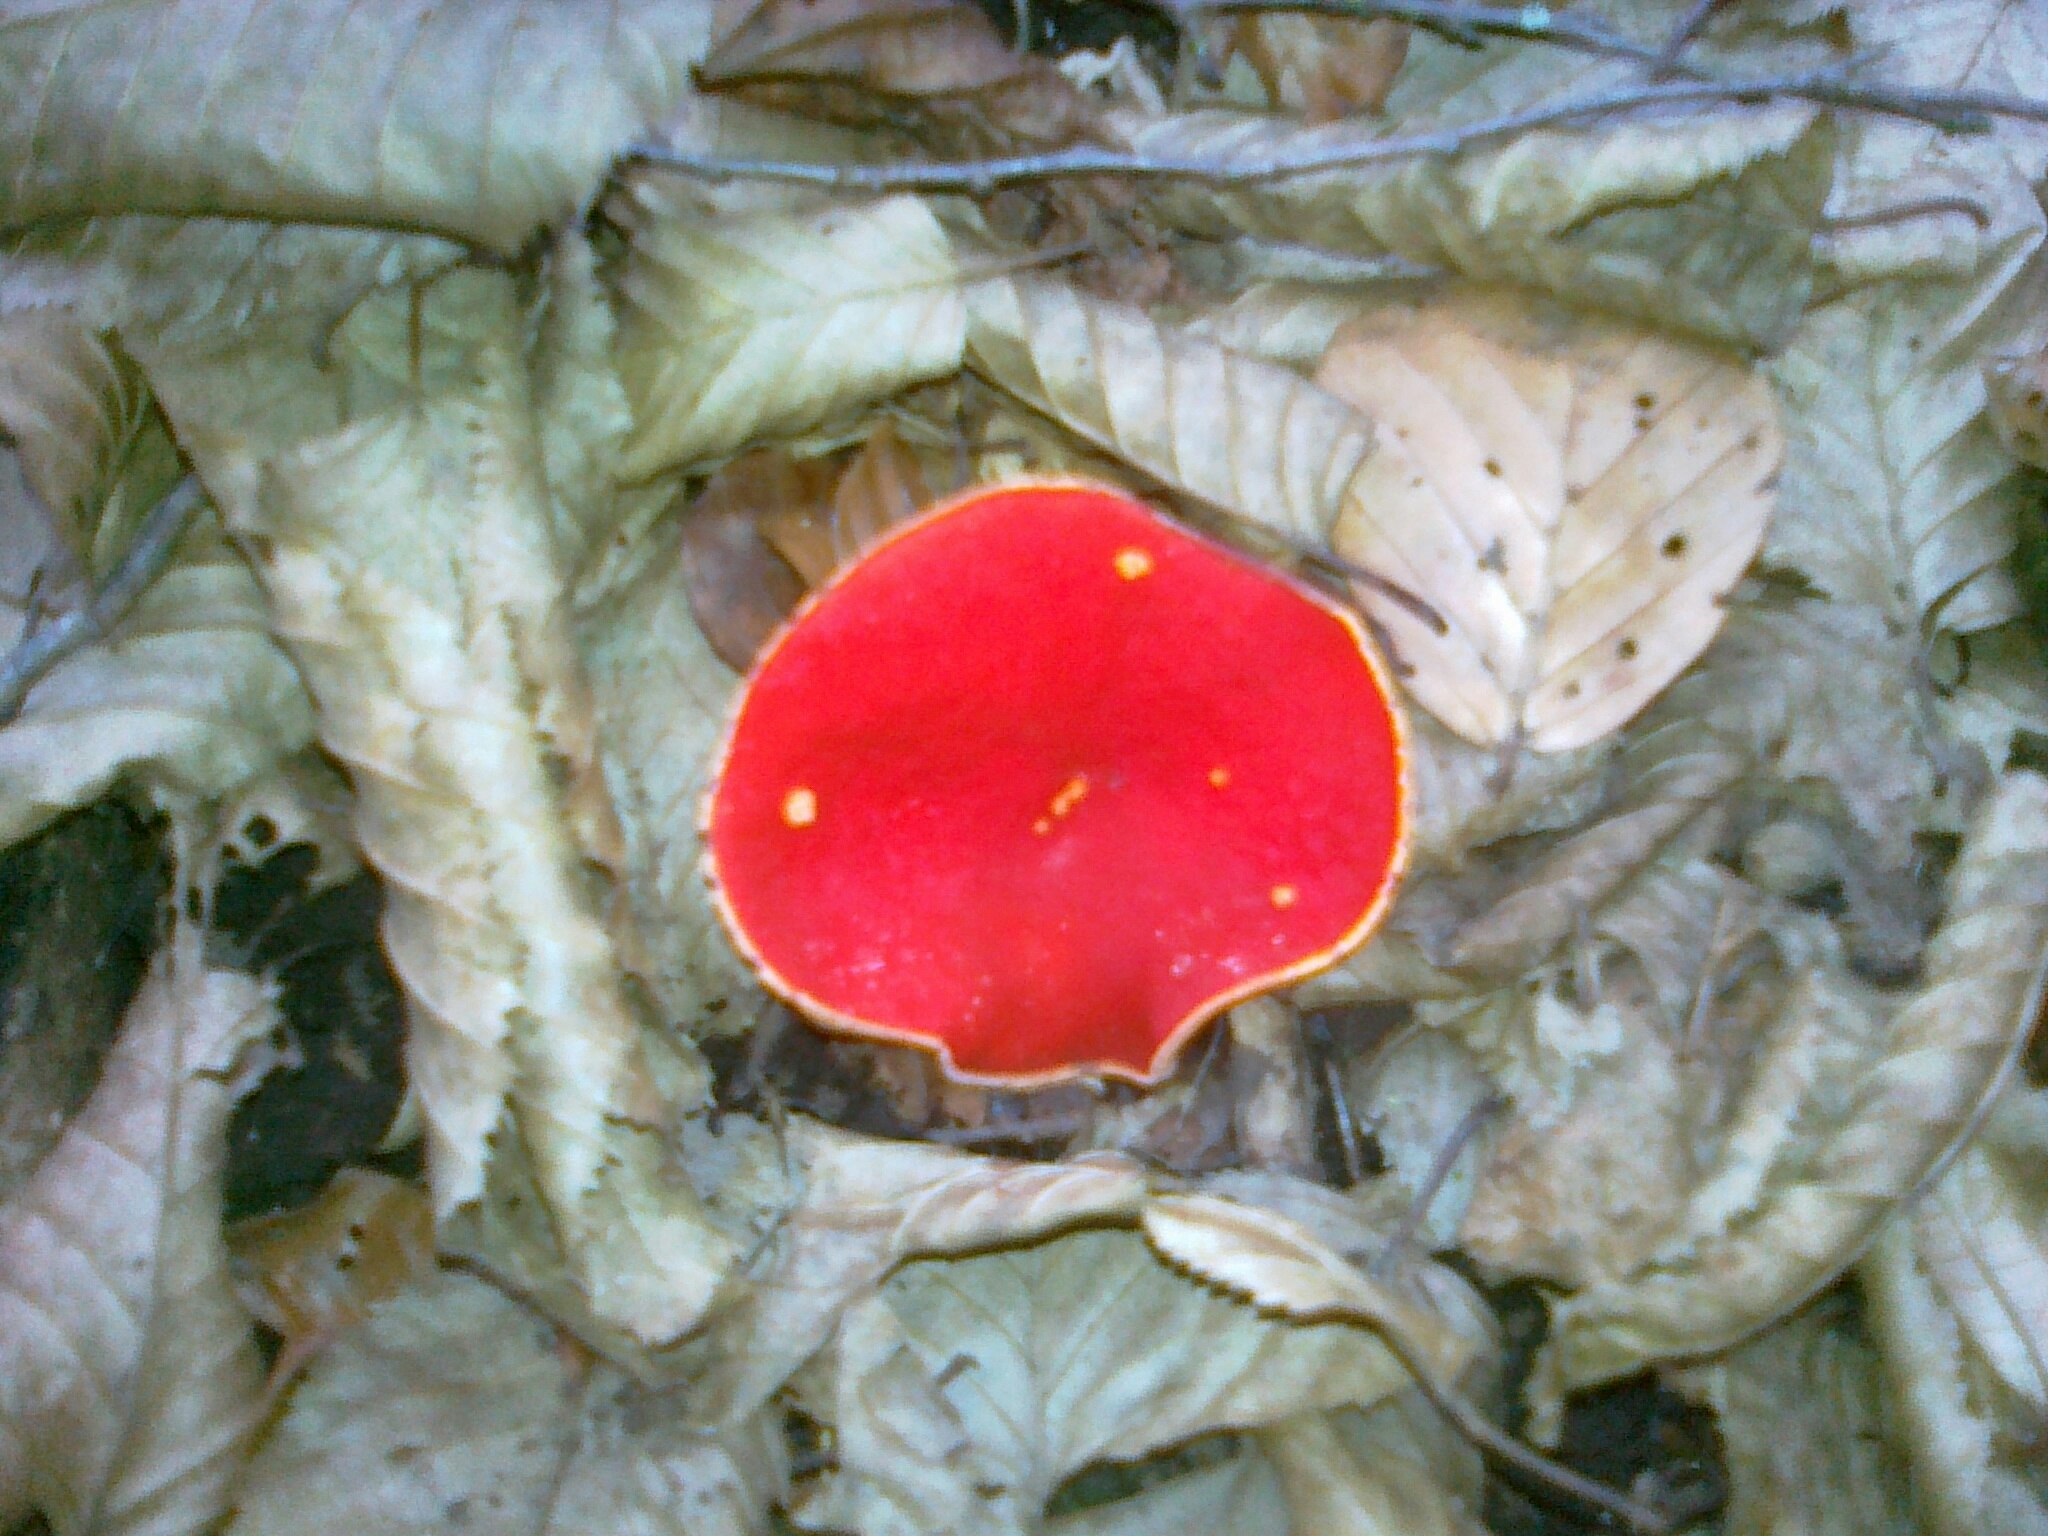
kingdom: Fungi
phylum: Ascomycota
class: Pezizomycetes
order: Pezizales
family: Sarcoscyphaceae
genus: Sarcoscypha
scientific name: Sarcoscypha
